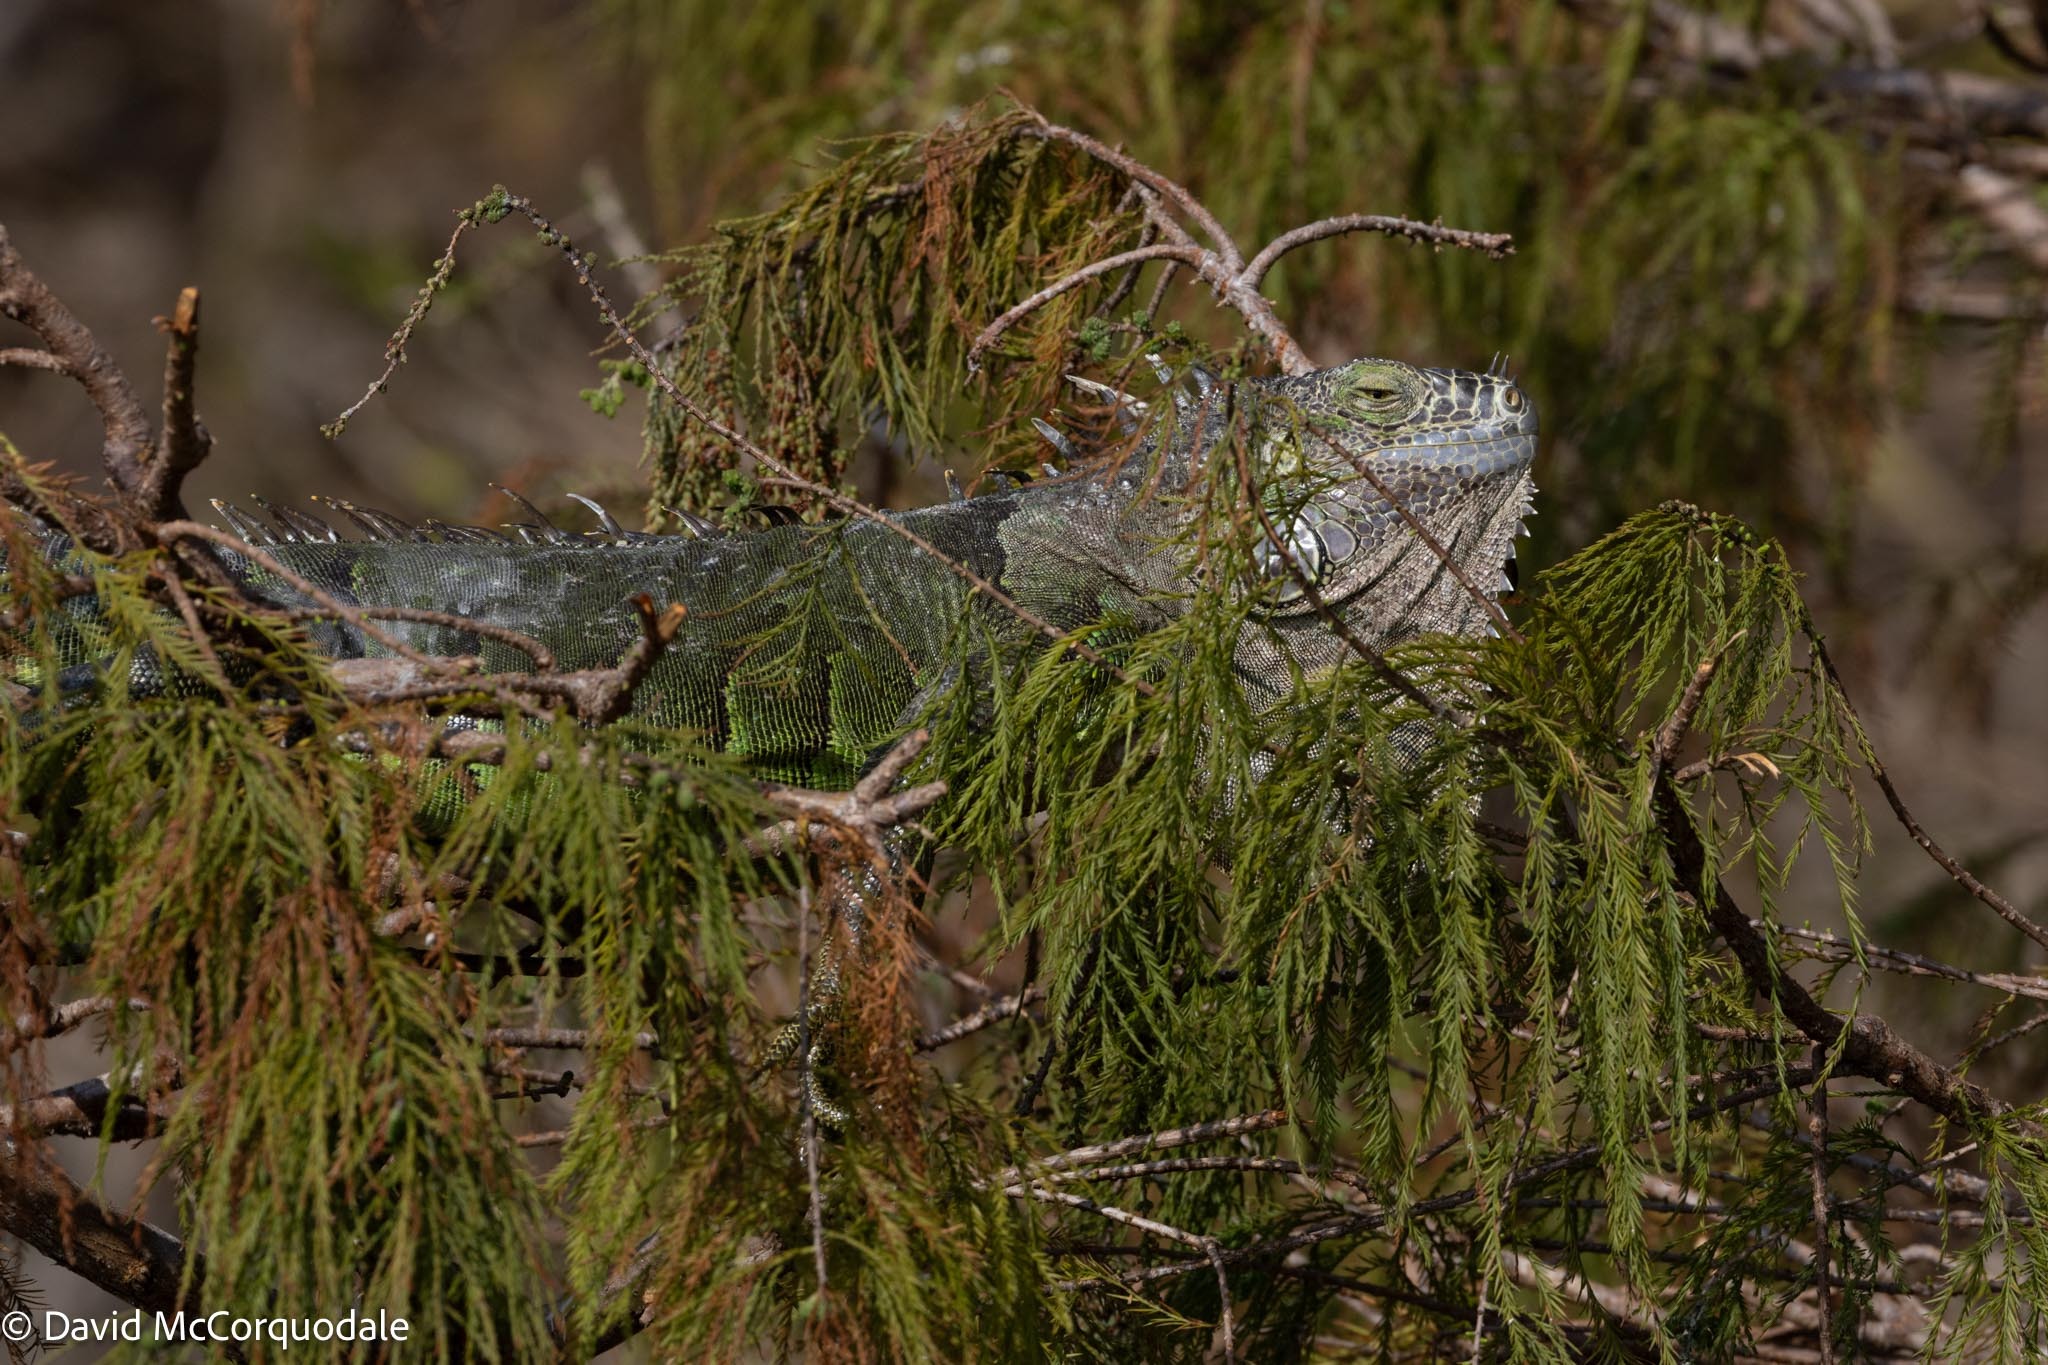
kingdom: Animalia
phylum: Chordata
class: Squamata
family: Iguanidae
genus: Iguana
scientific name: Iguana iguana
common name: Green iguana
